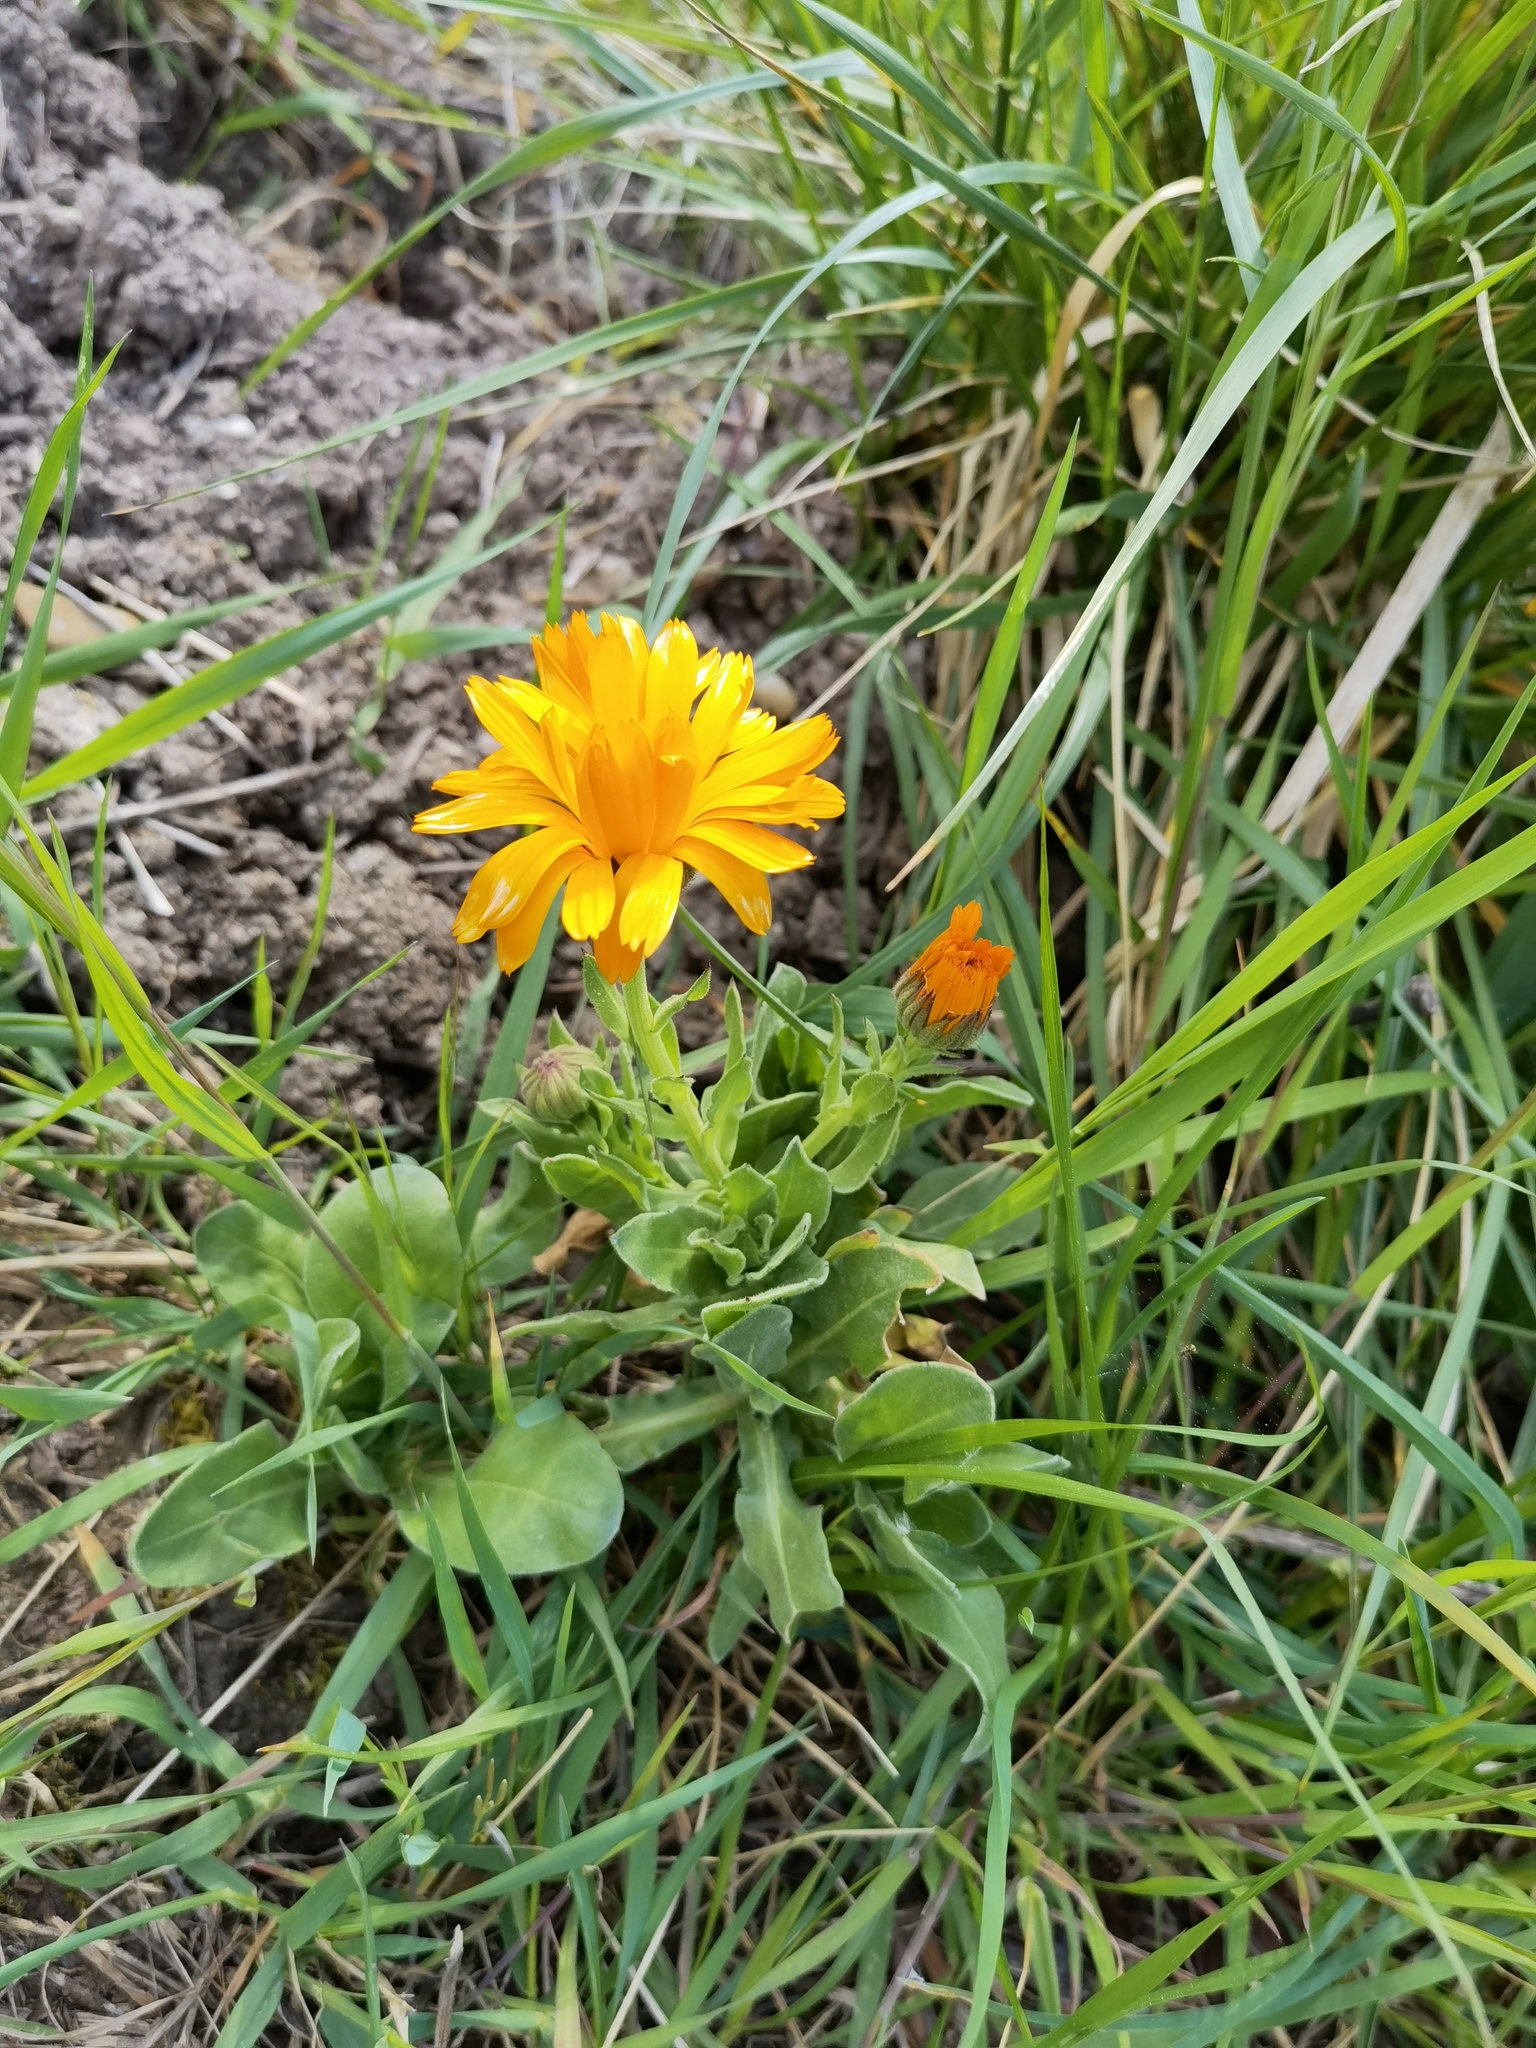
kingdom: Plantae
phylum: Tracheophyta
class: Magnoliopsida
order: Asterales
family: Asteraceae
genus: Calendula
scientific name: Calendula officinalis
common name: Pot marigold
